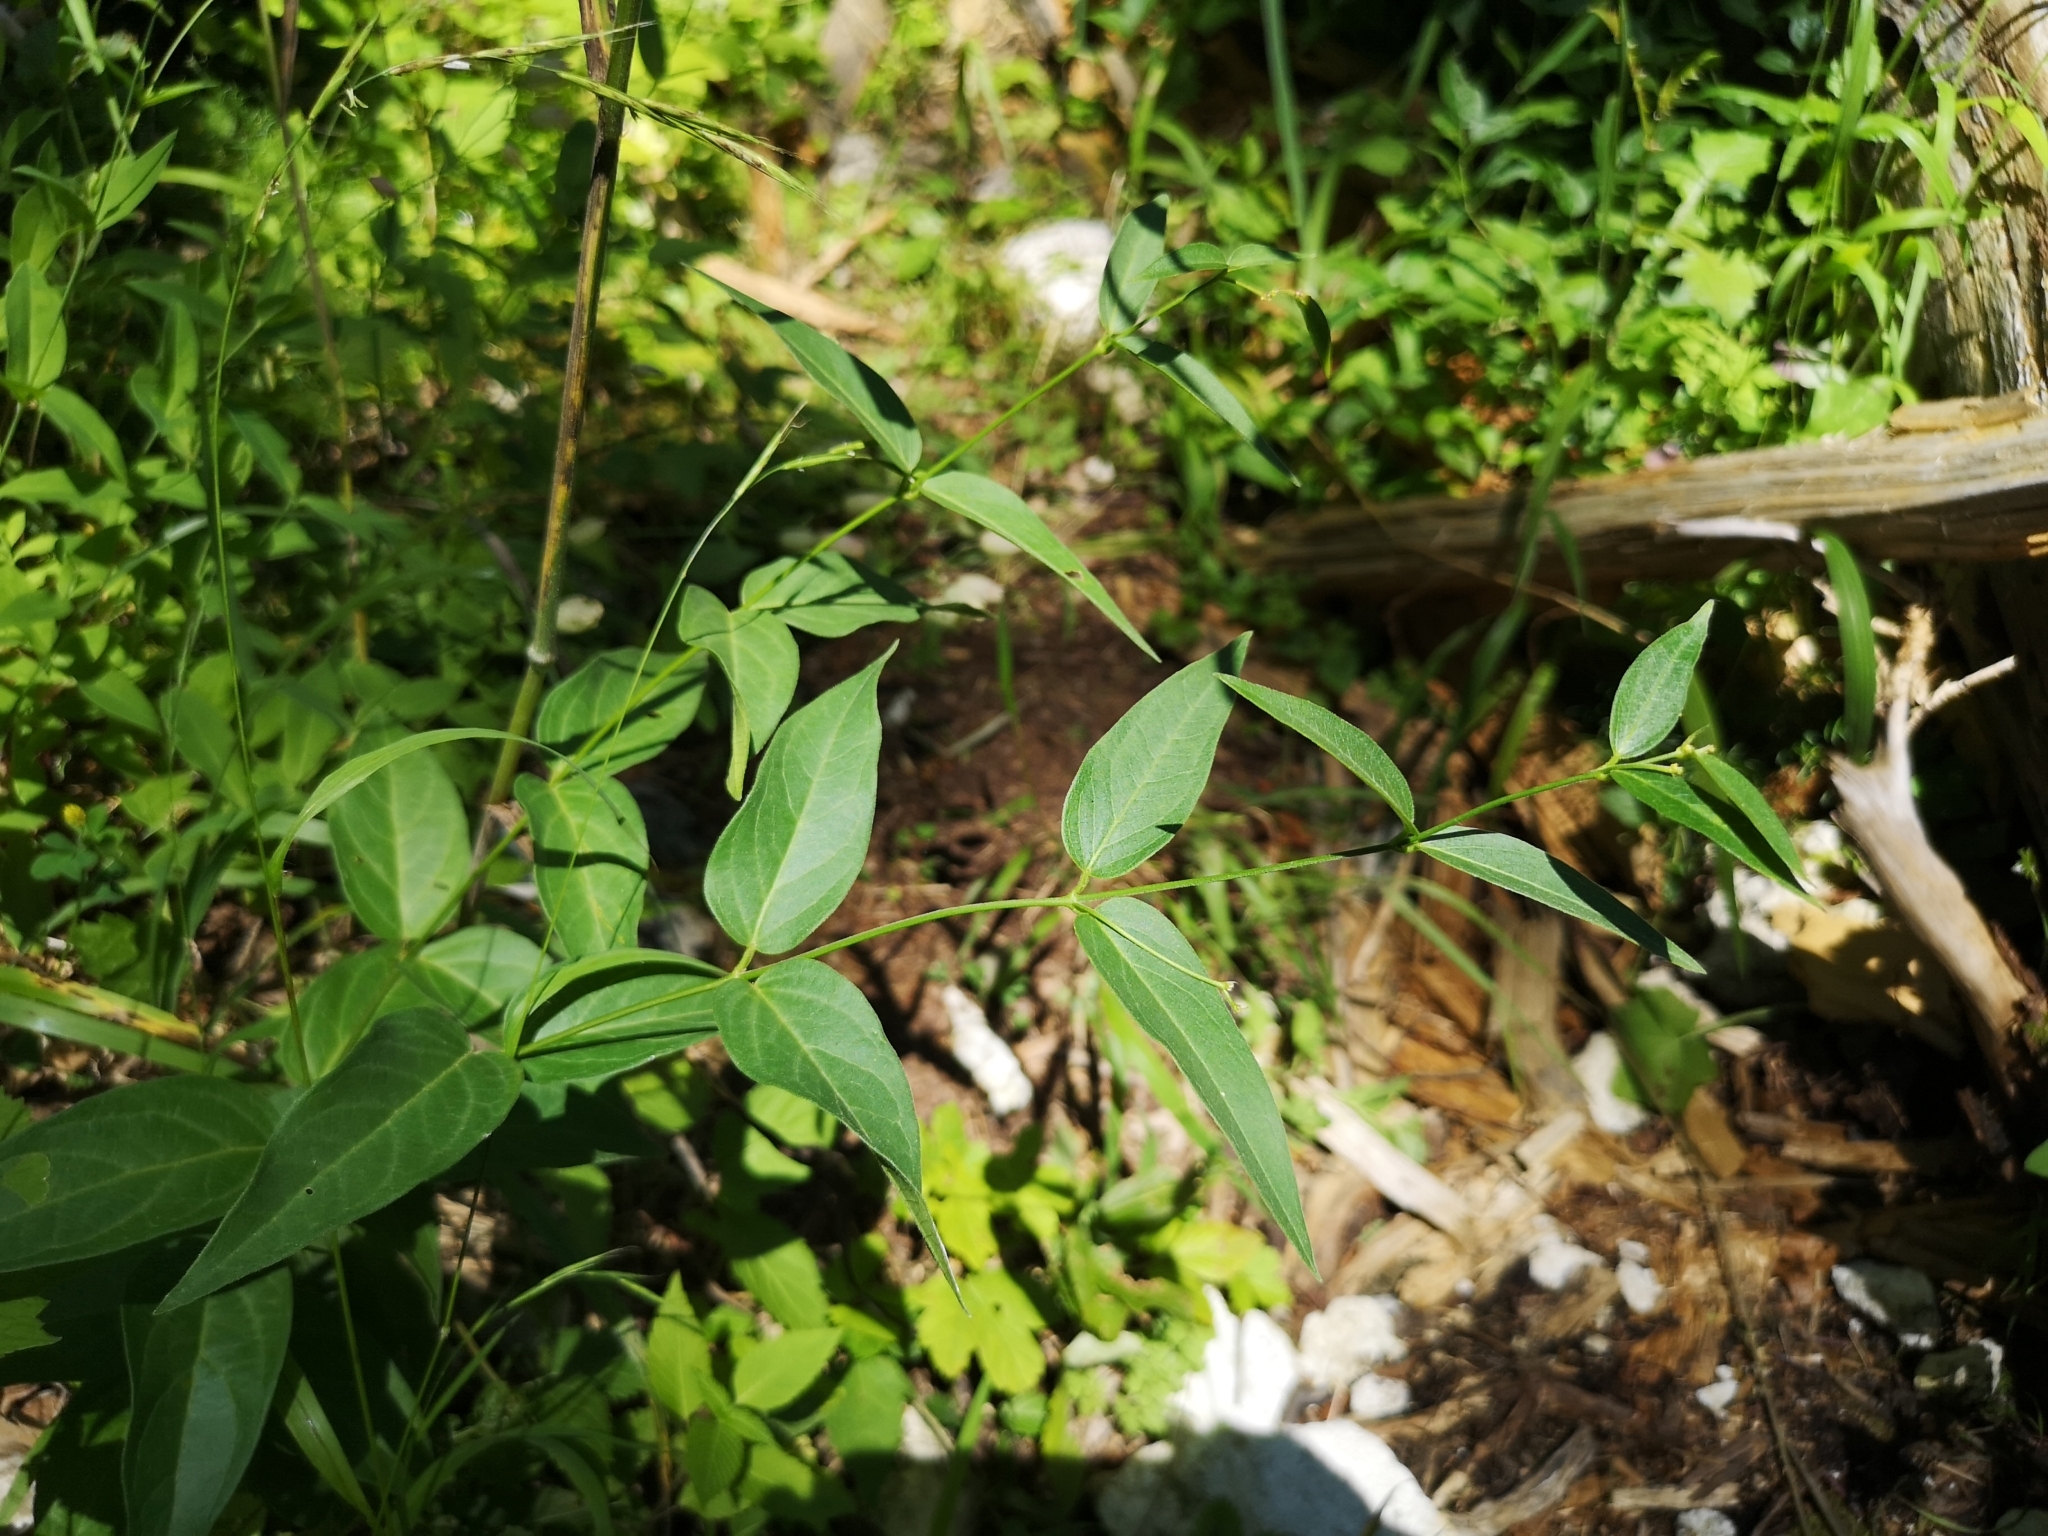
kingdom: Plantae
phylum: Tracheophyta
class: Magnoliopsida
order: Gentianales
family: Apocynaceae
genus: Vincetoxicum
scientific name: Vincetoxicum hirundinaria
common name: White swallowwort
